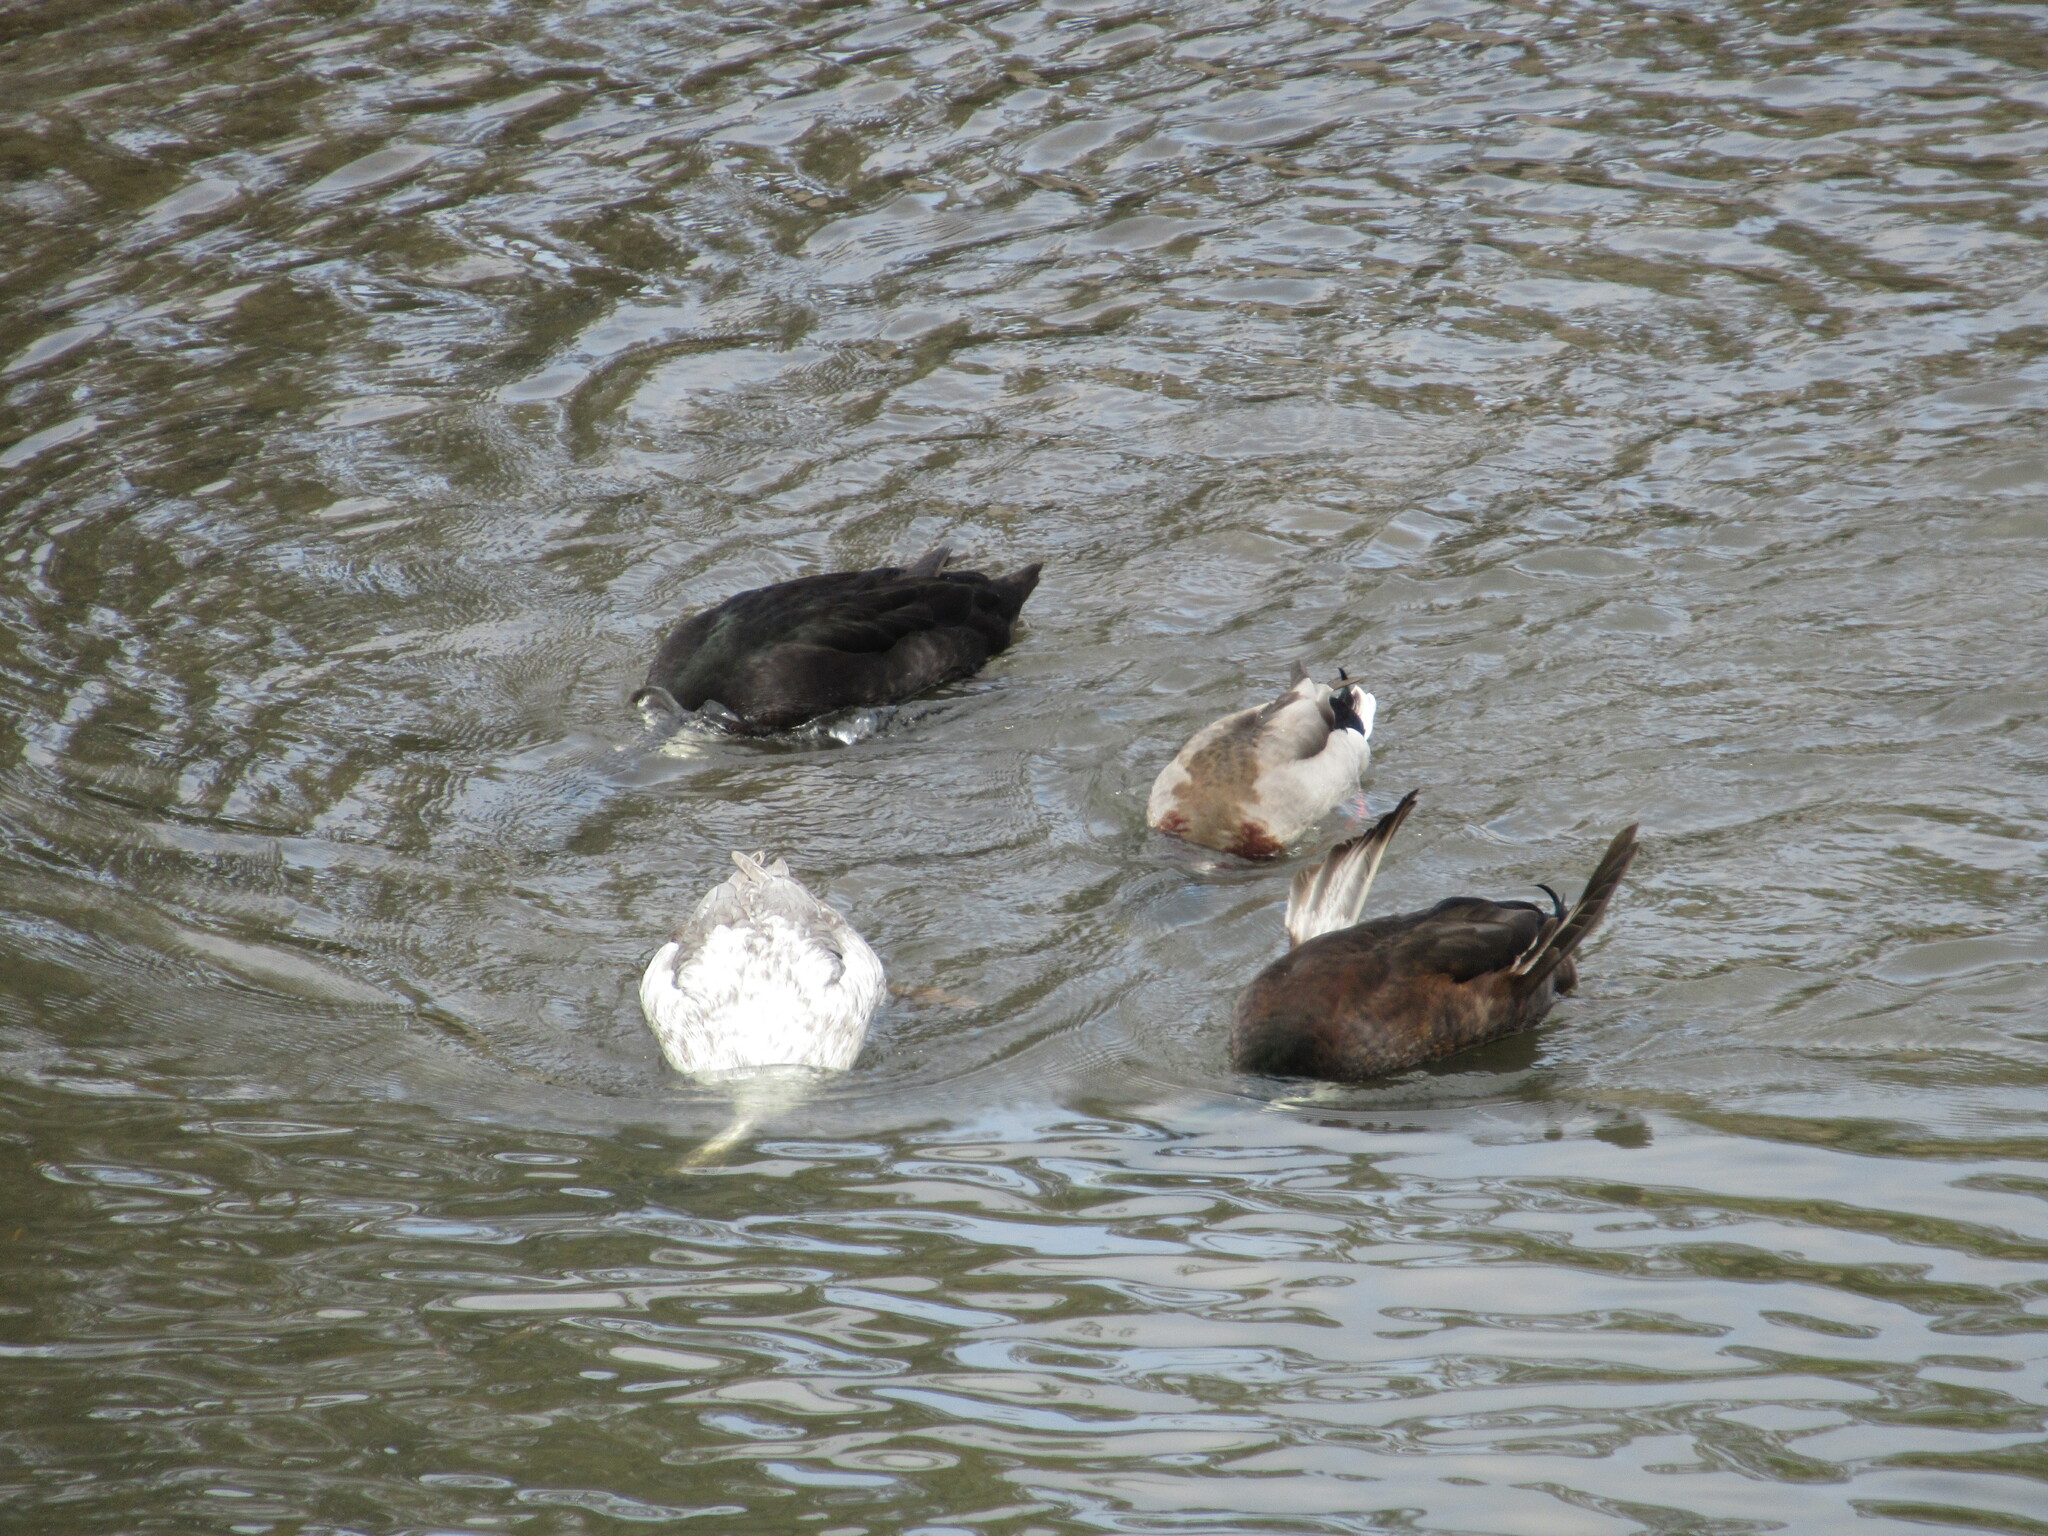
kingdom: Animalia
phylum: Chordata
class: Aves
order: Anseriformes
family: Anatidae
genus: Anas
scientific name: Anas platyrhynchos
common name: Mallard
